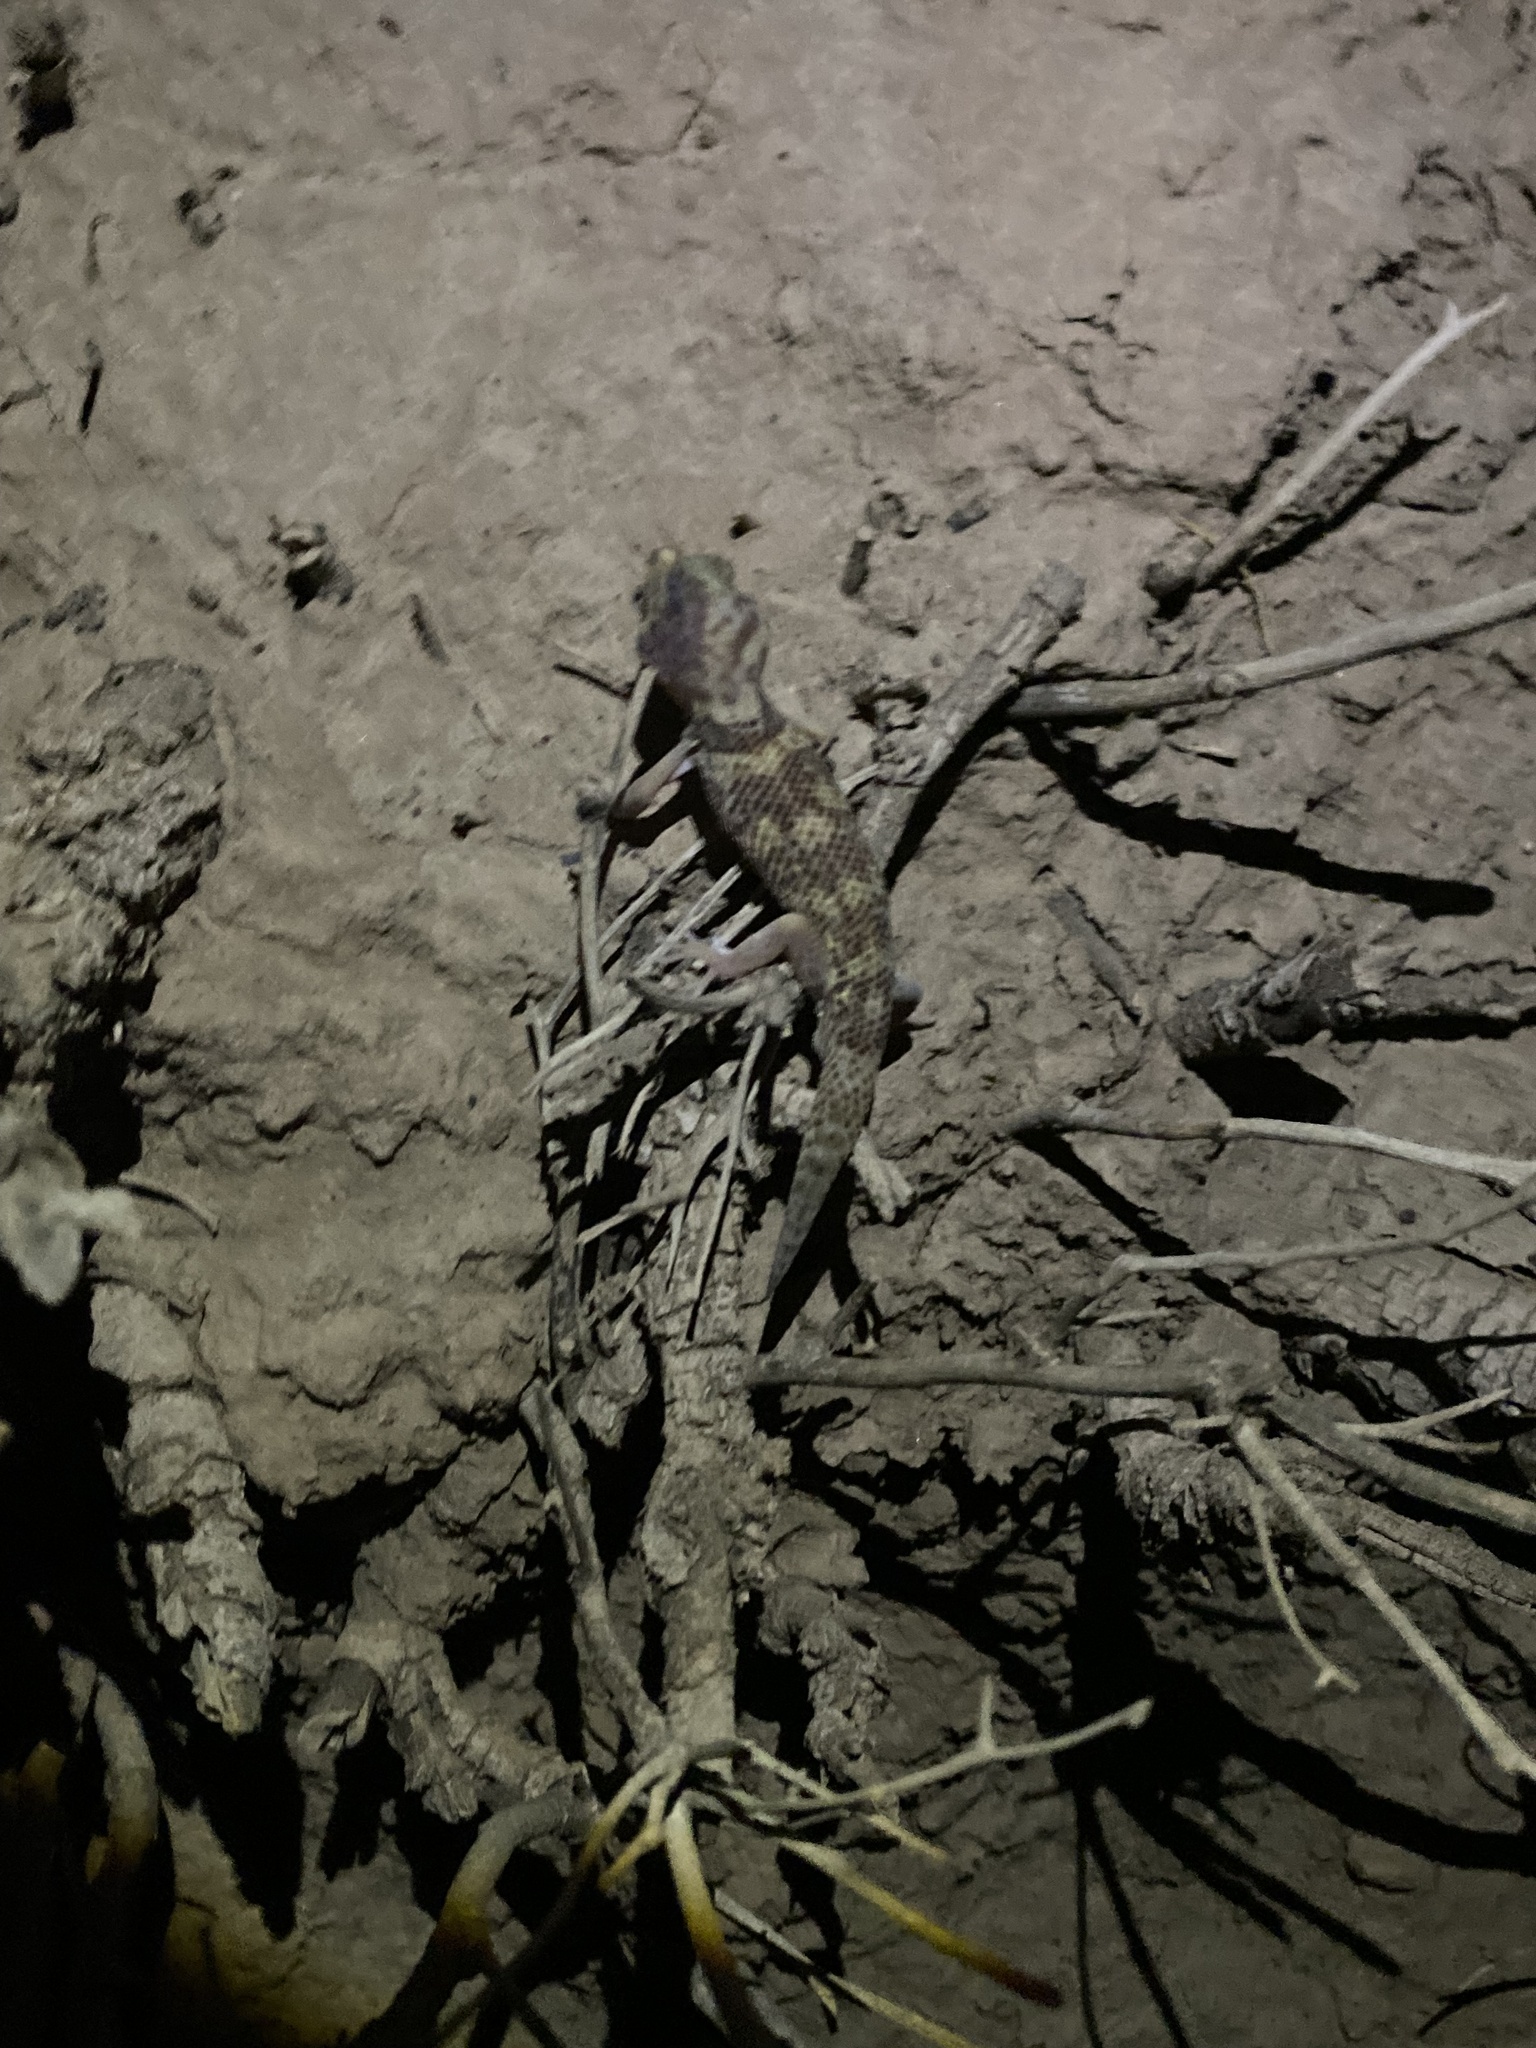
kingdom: Animalia
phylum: Chordata
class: Squamata
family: Sphaerodactylidae
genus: Teratoscincus
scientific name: Teratoscincus bedriagai
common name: Bedriaga's plate-tailed gecko
